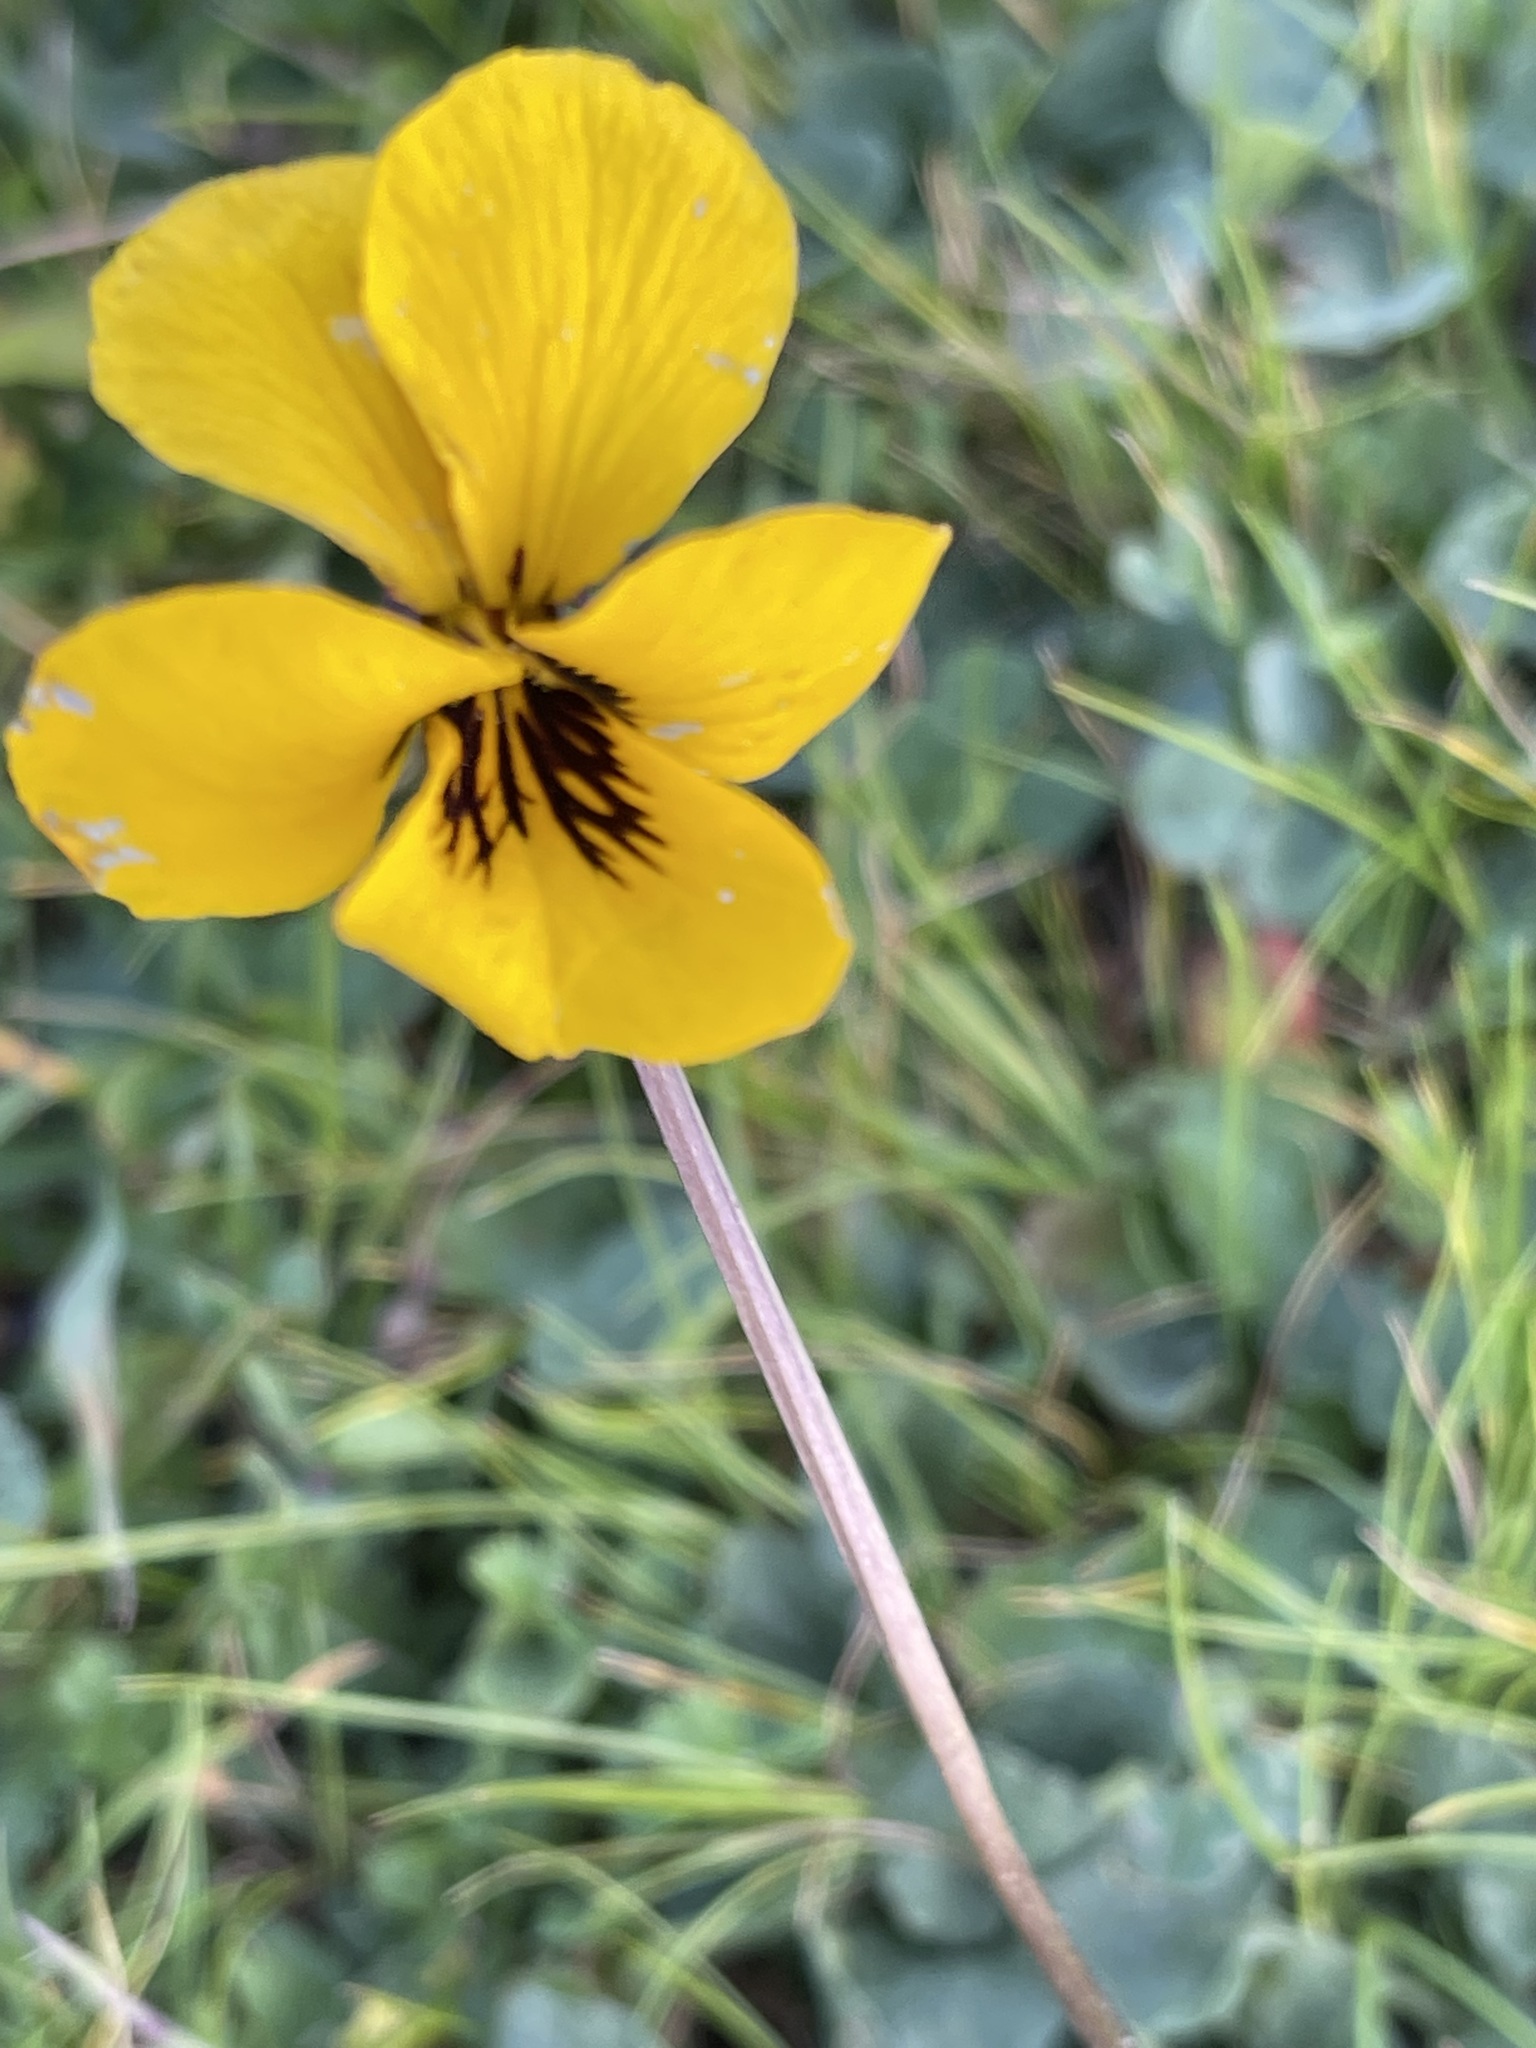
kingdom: Plantae
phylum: Tracheophyta
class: Magnoliopsida
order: Malpighiales
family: Violaceae
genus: Viola
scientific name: Viola pedunculata
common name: California golden violet
